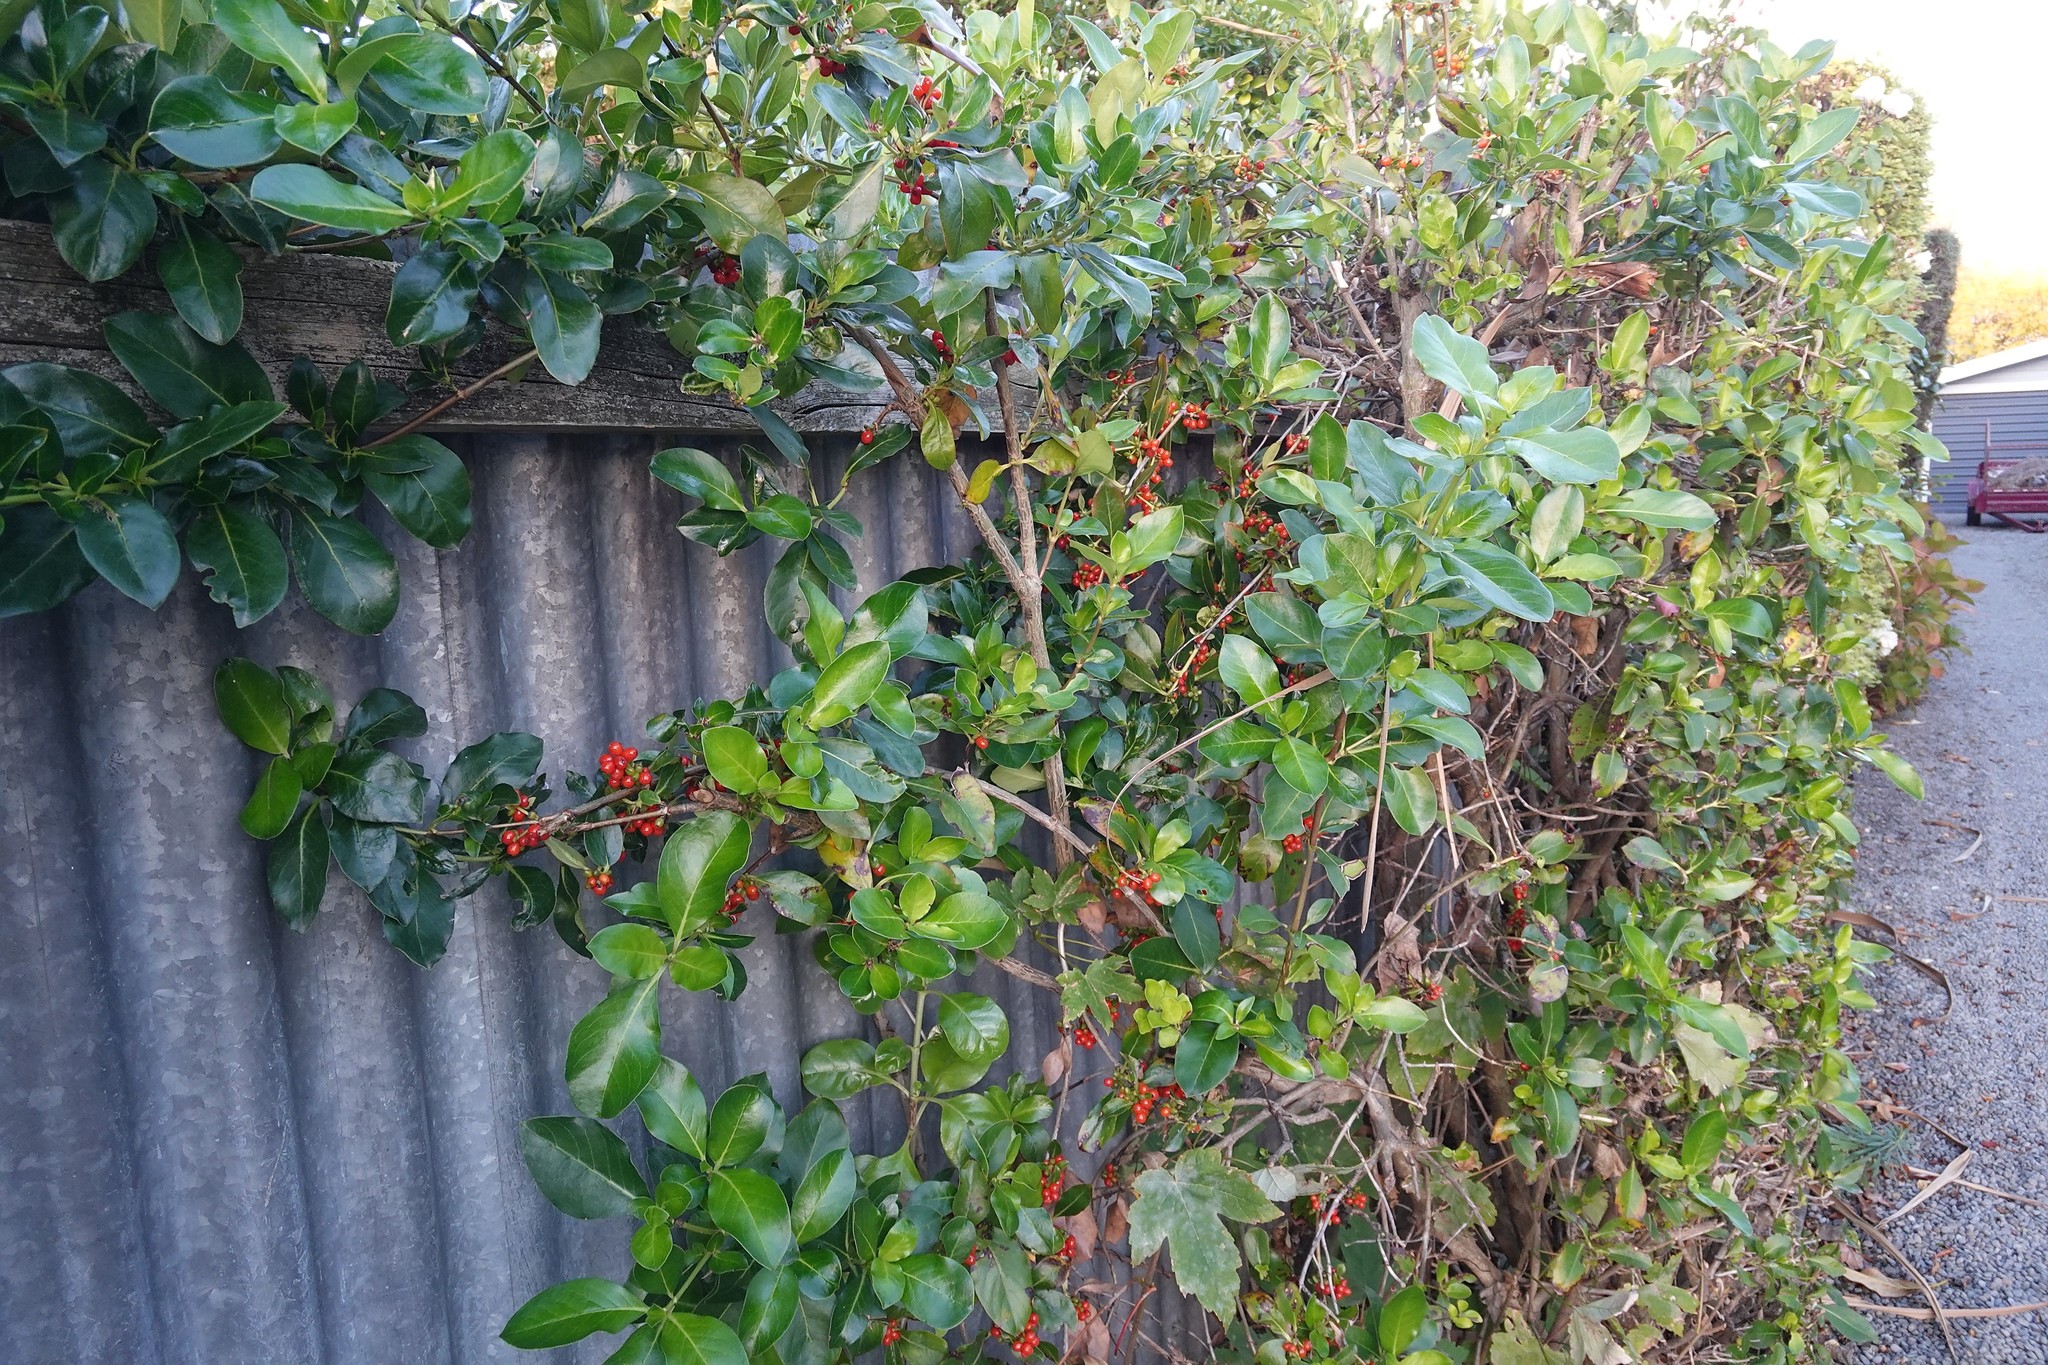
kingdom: Plantae
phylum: Tracheophyta
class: Magnoliopsida
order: Sapindales
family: Sapindaceae
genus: Acer
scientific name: Acer pseudoplatanus
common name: Sycamore
